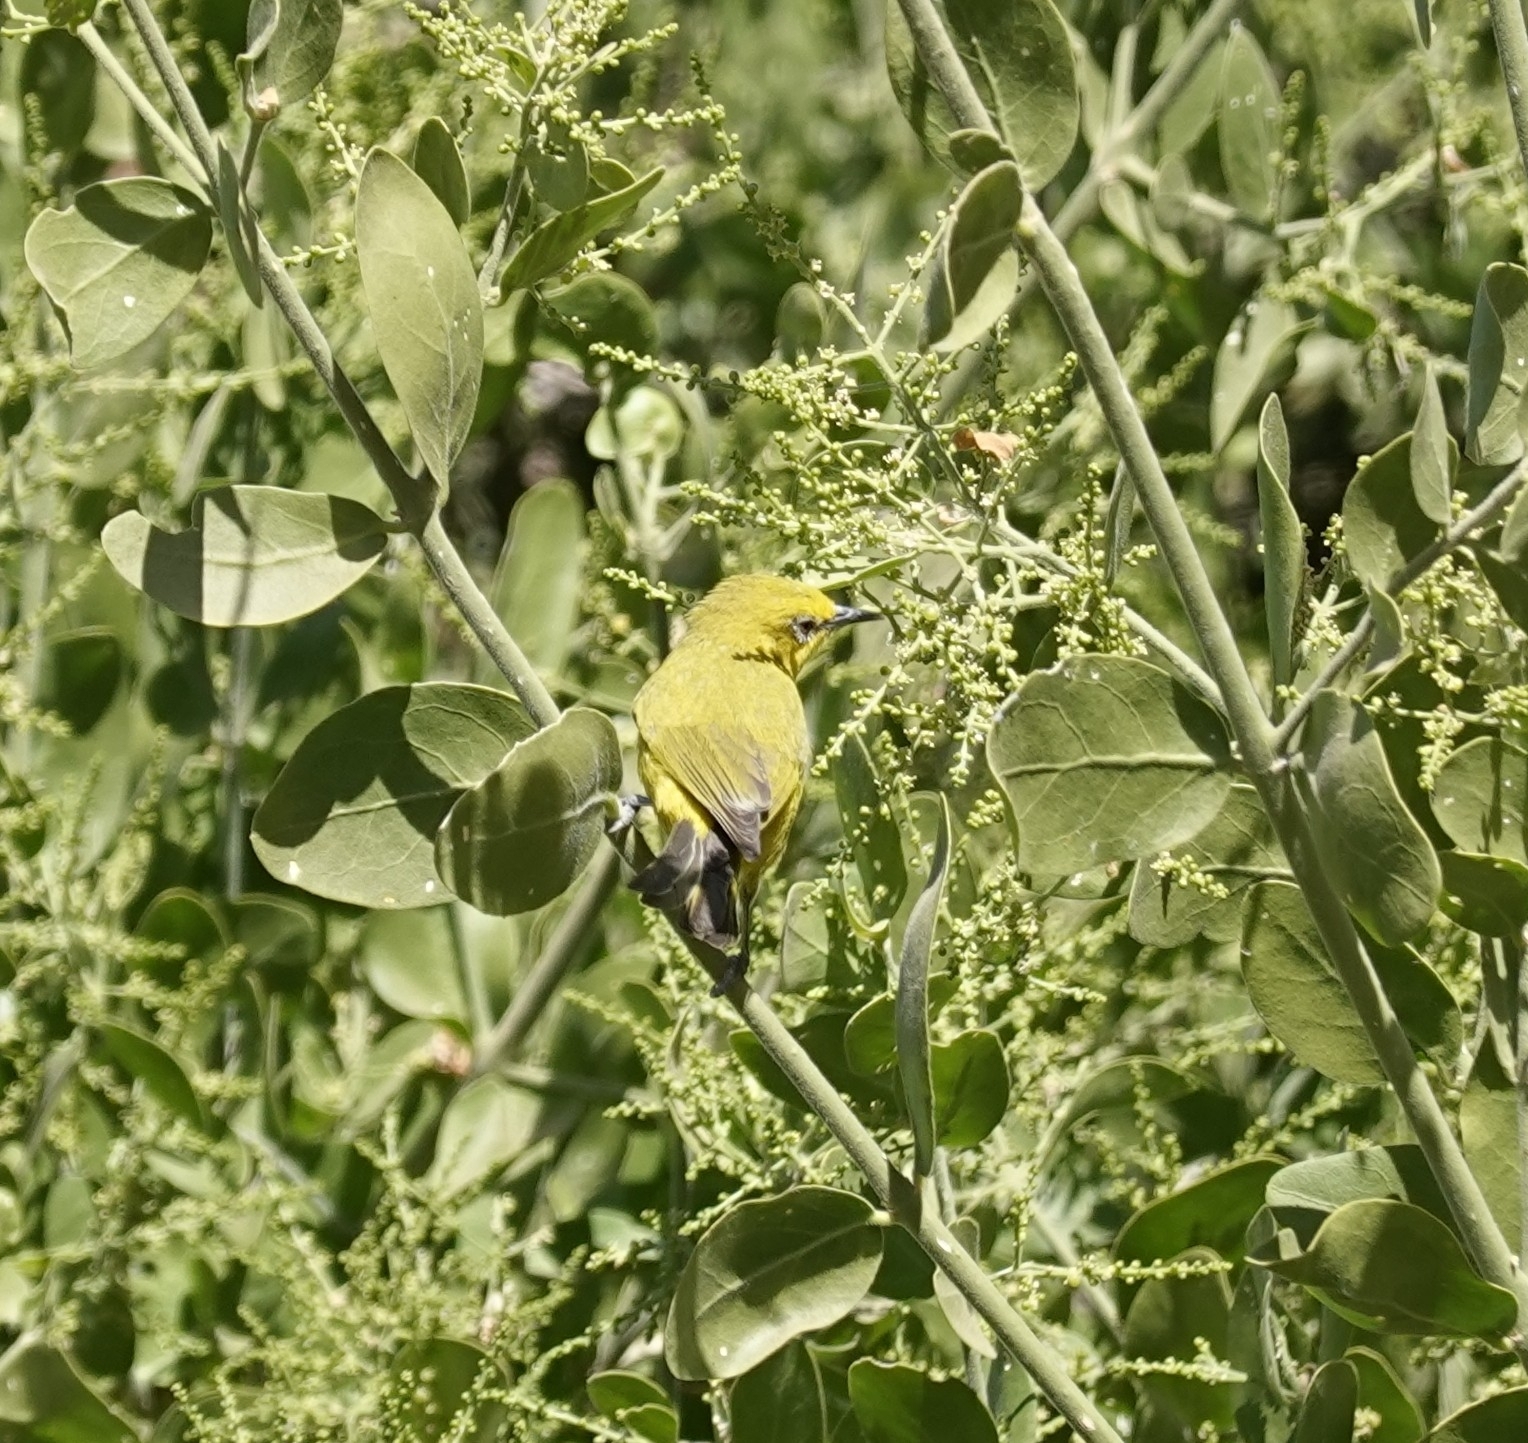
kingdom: Animalia
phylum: Chordata
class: Aves
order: Passeriformes
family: Zosteropidae
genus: Zosterops
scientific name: Zosterops anderssoni
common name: Southern yellow white-eye
